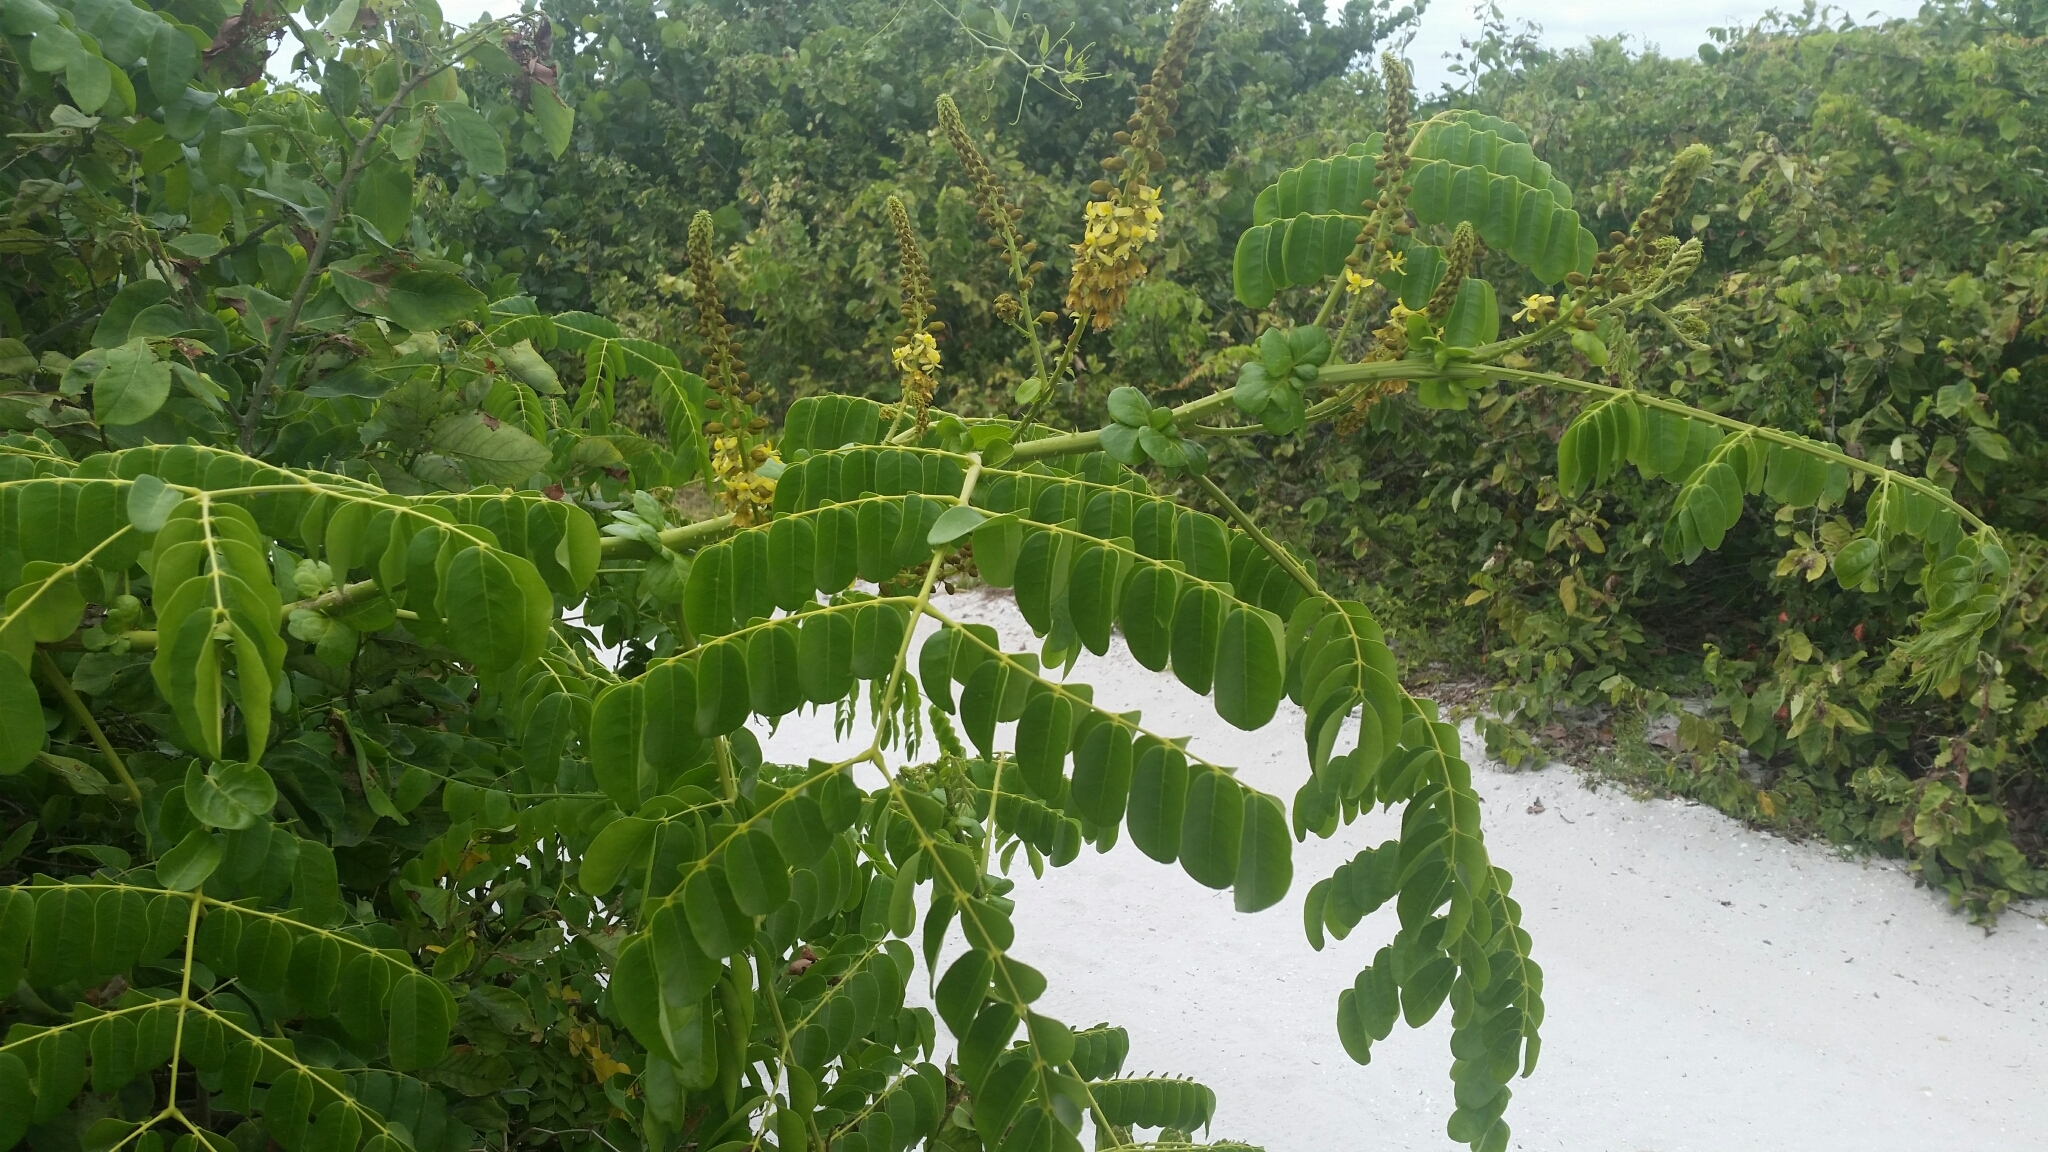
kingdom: Plantae
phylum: Tracheophyta
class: Magnoliopsida
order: Fabales
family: Fabaceae
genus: Guilandina
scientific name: Guilandina bonduc
